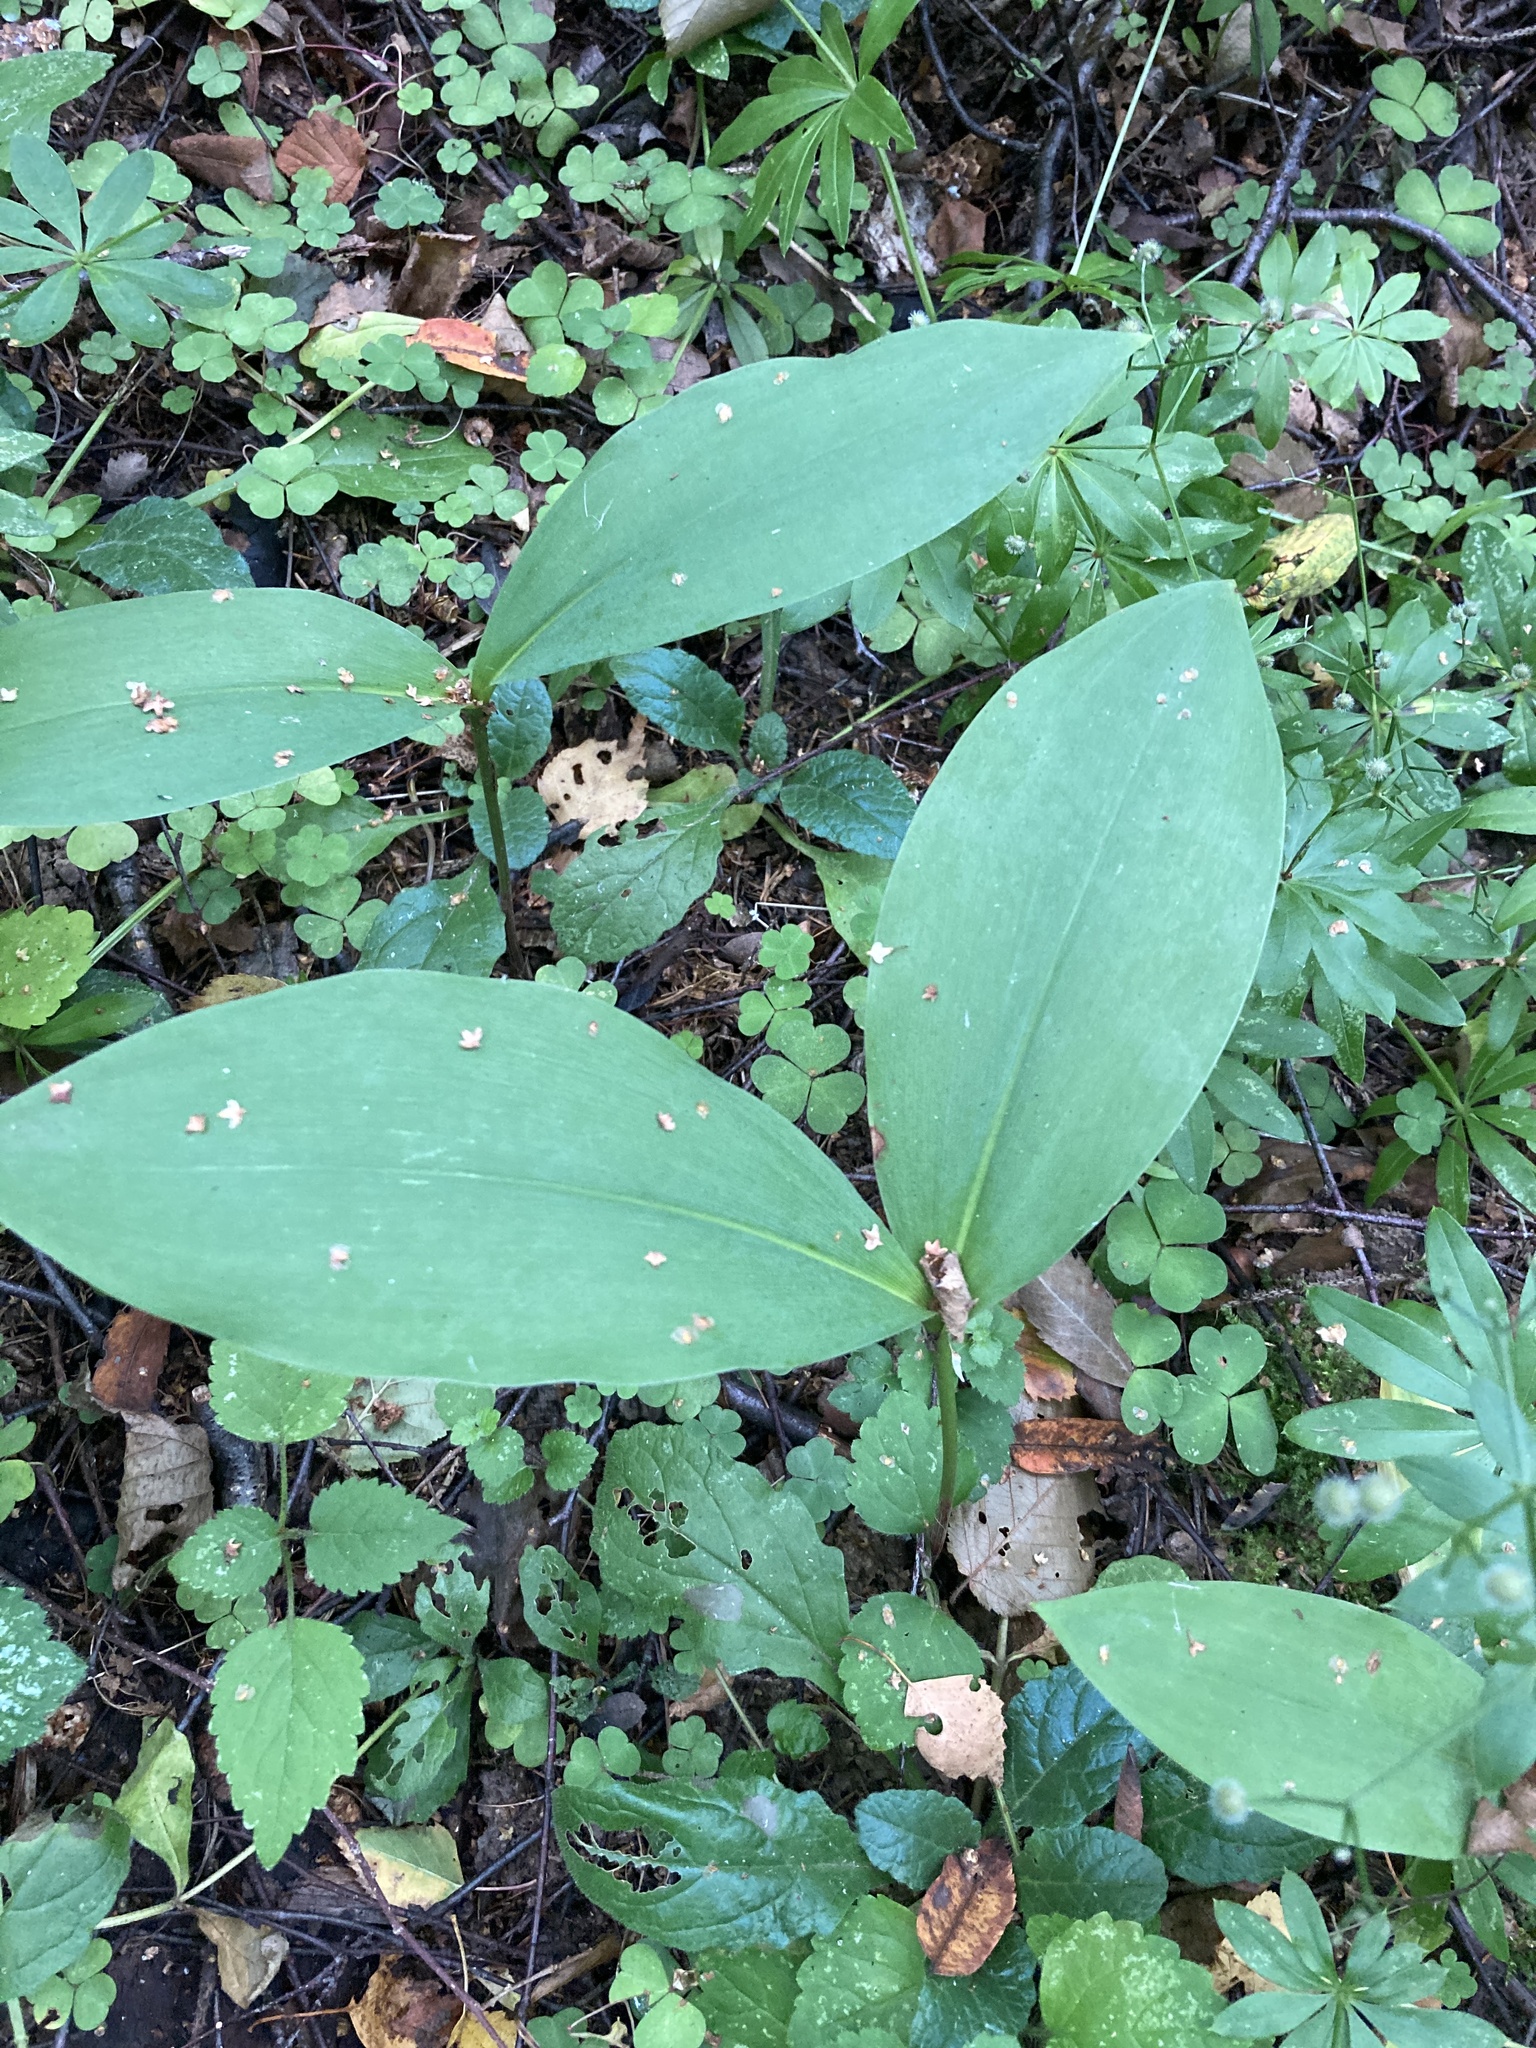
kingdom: Plantae
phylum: Tracheophyta
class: Liliopsida
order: Asparagales
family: Asparagaceae
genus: Convallaria
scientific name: Convallaria majalis
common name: Lily-of-the-valley
